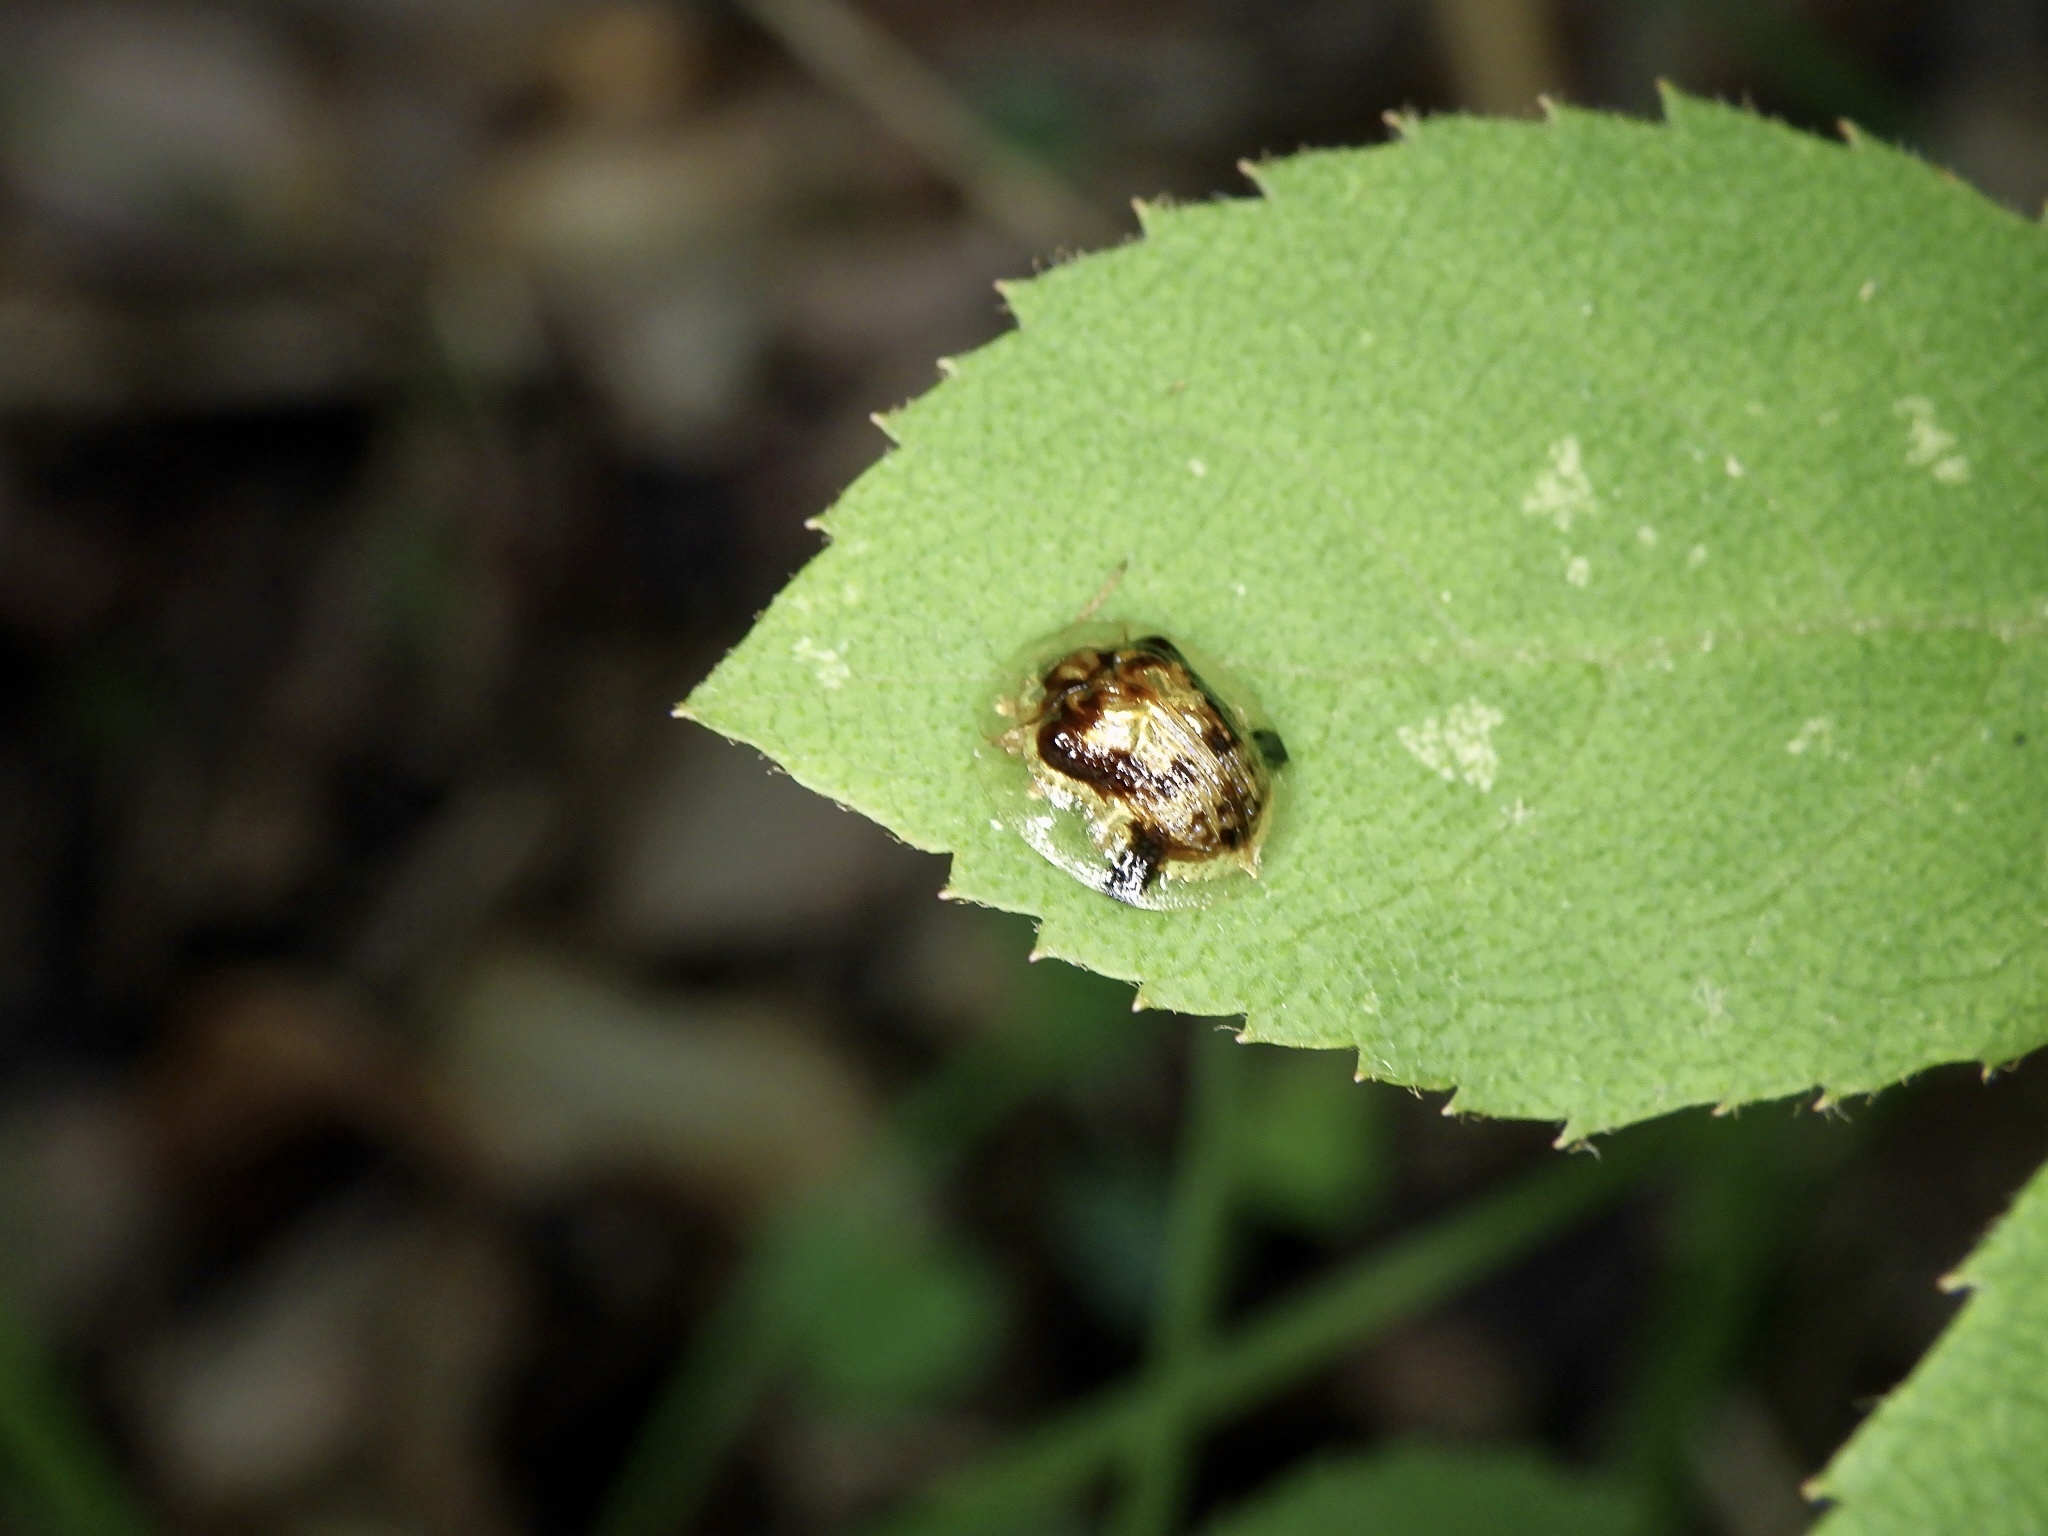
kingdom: Animalia
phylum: Arthropoda
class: Insecta
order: Coleoptera
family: Chrysomelidae
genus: Cassida
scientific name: Cassida versicolor
